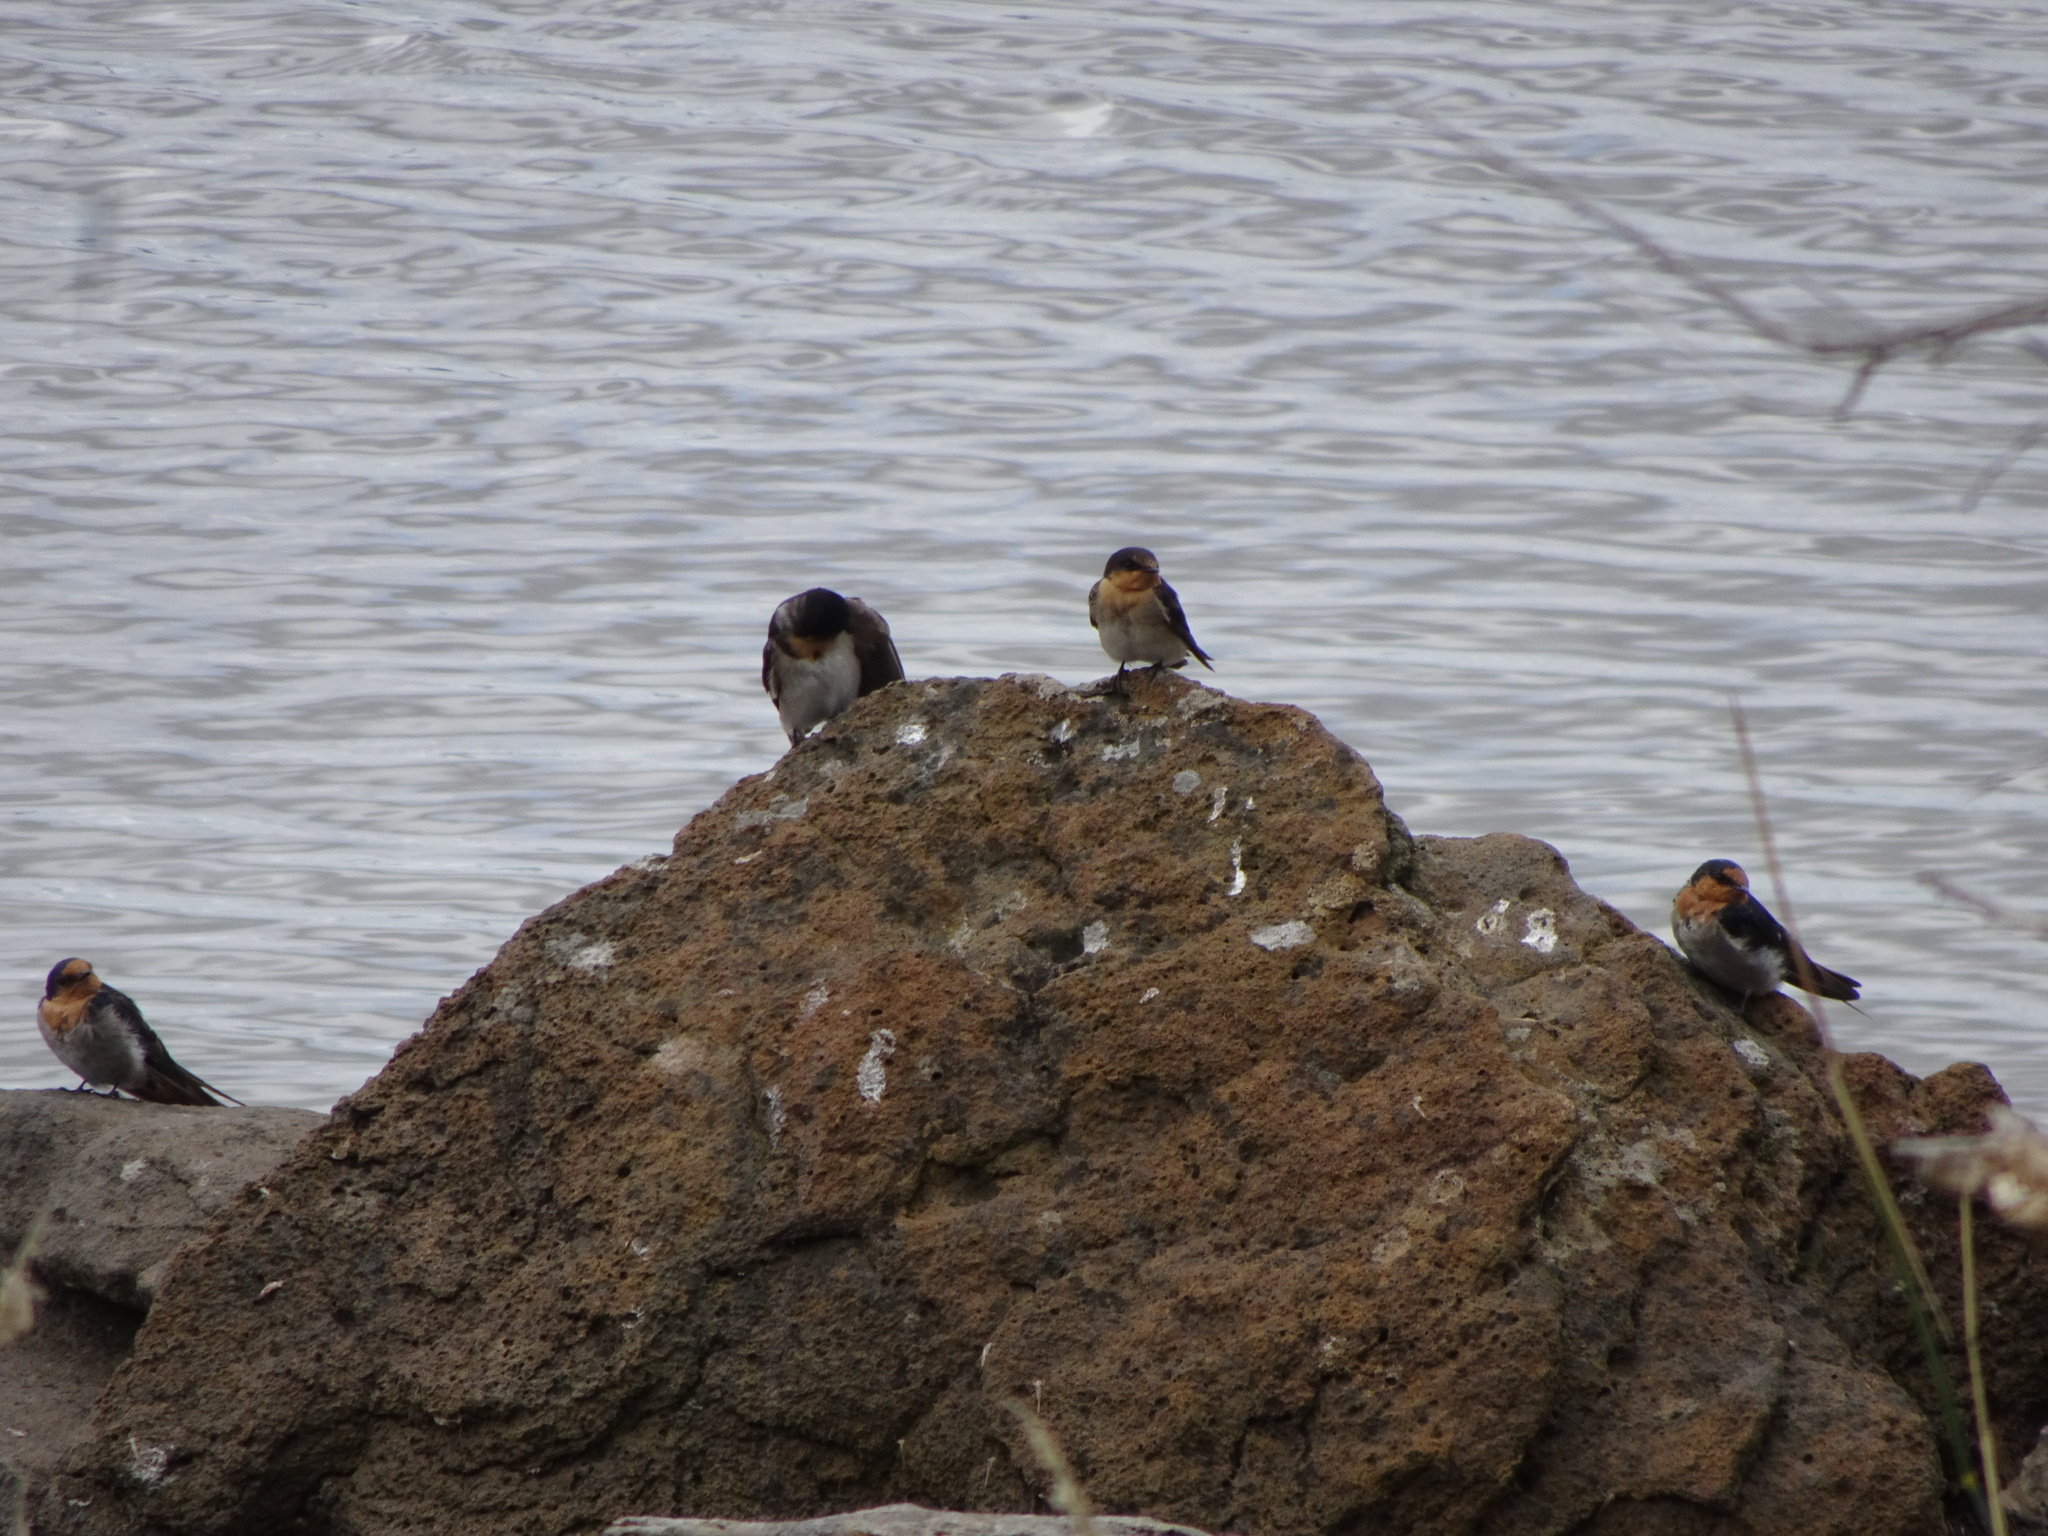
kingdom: Animalia
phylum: Chordata
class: Aves
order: Passeriformes
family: Hirundinidae
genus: Hirundo
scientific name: Hirundo neoxena
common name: Welcome swallow
